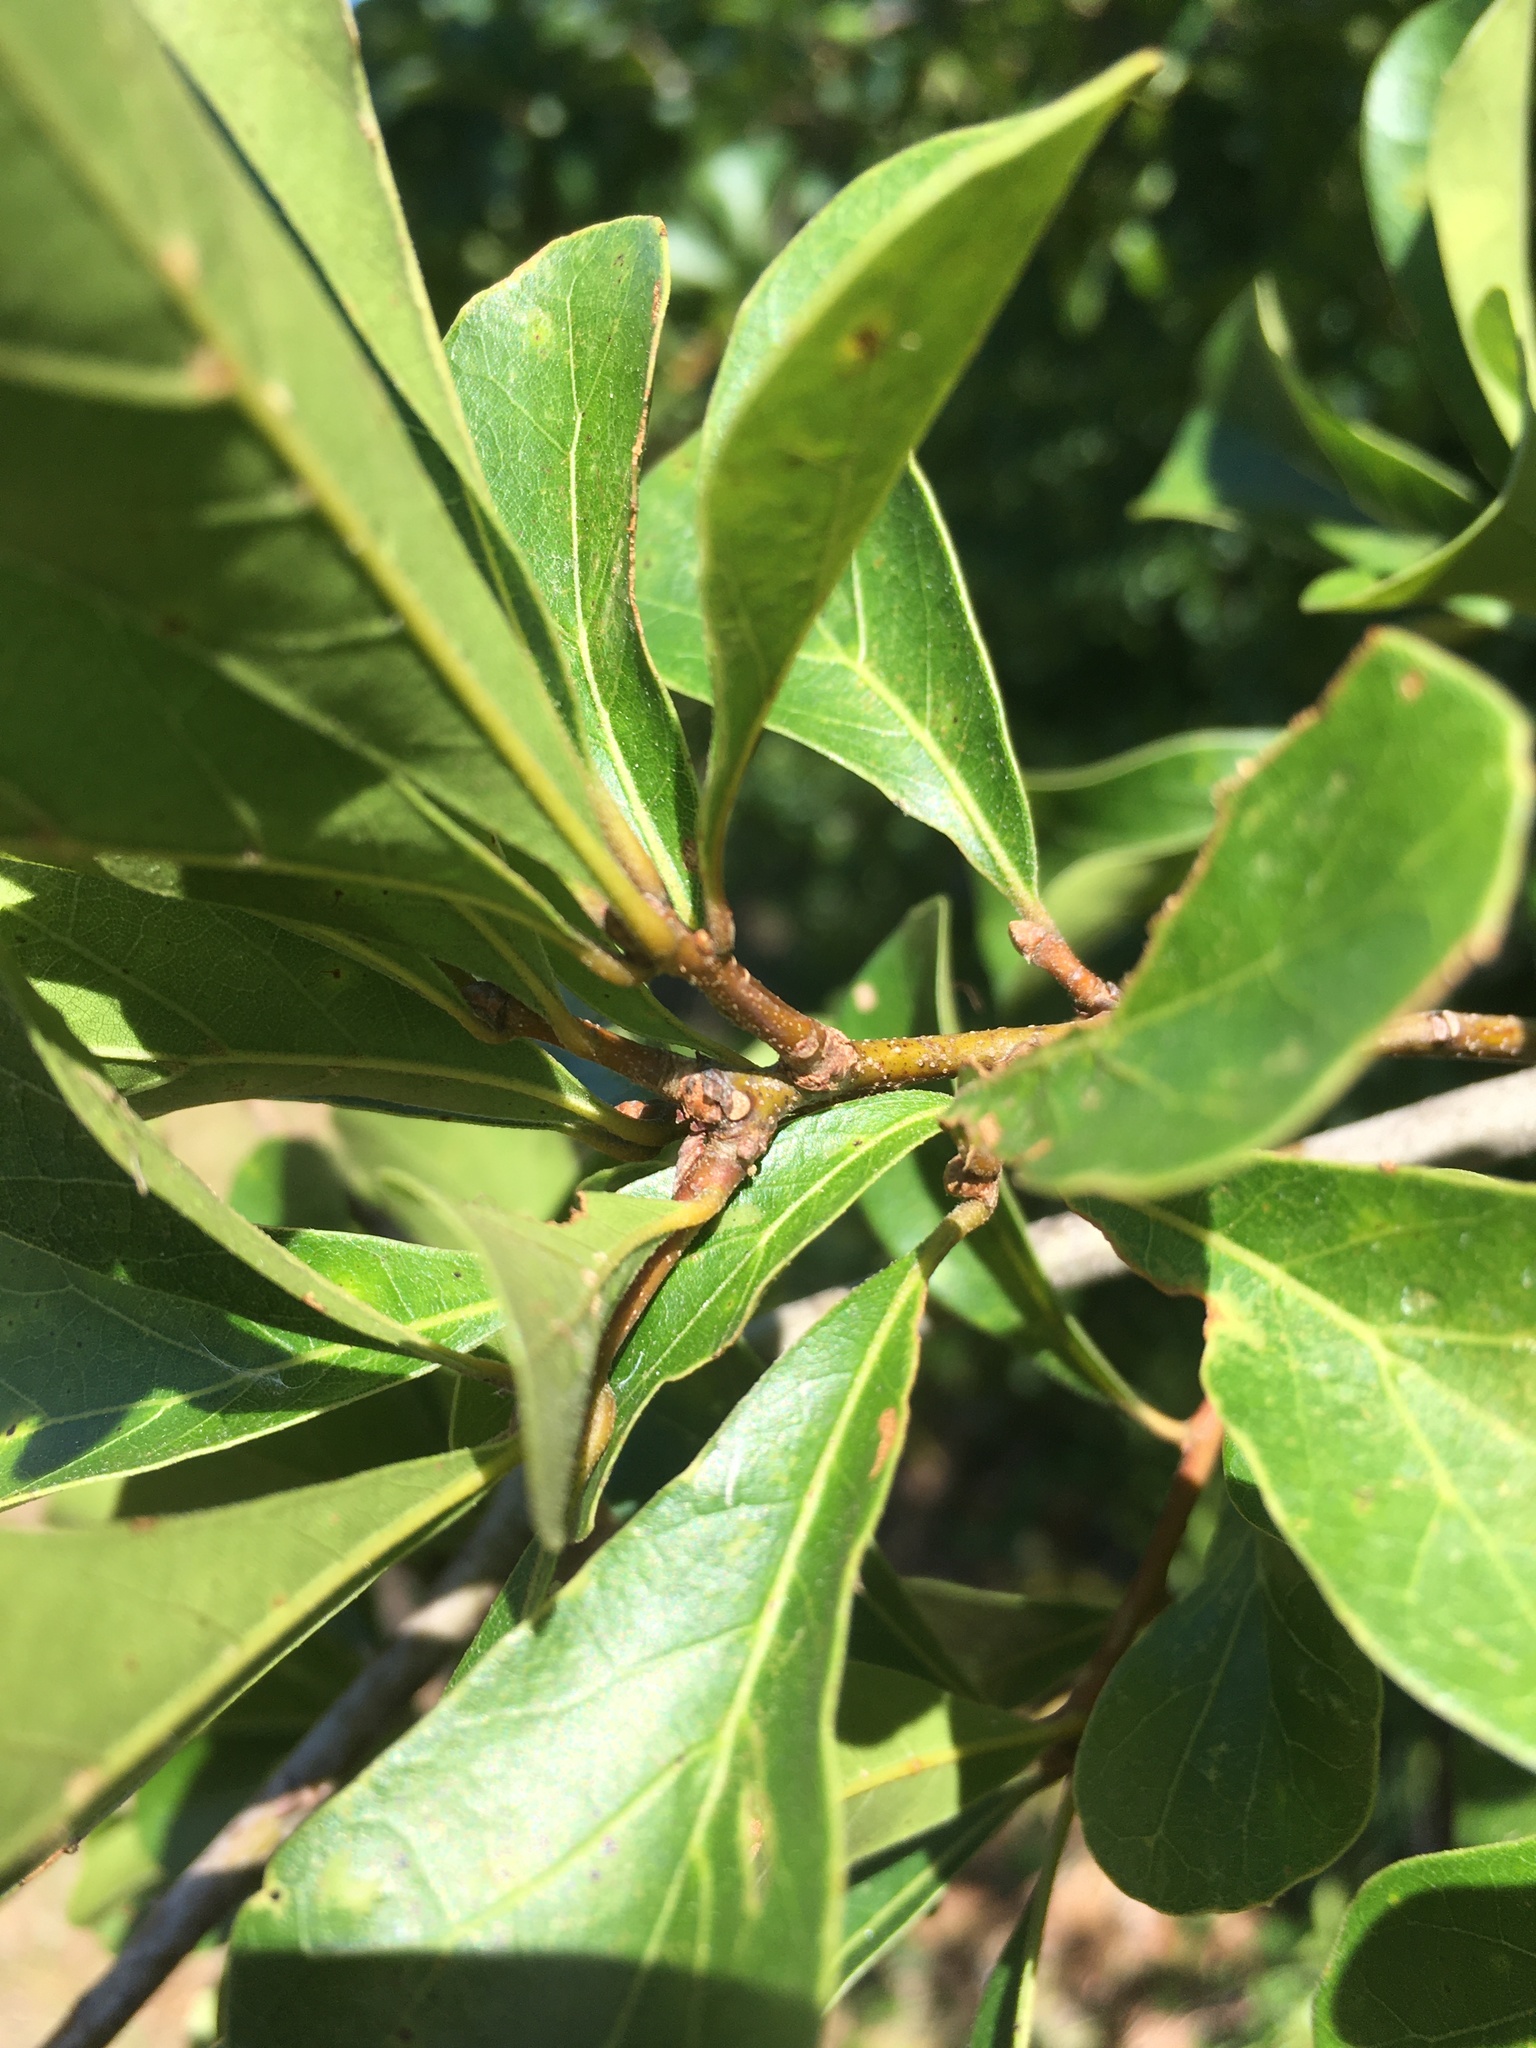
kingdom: Plantae
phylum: Tracheophyta
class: Magnoliopsida
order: Fagales
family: Fagaceae
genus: Quercus
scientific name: Quercus nigra
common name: Water oak
